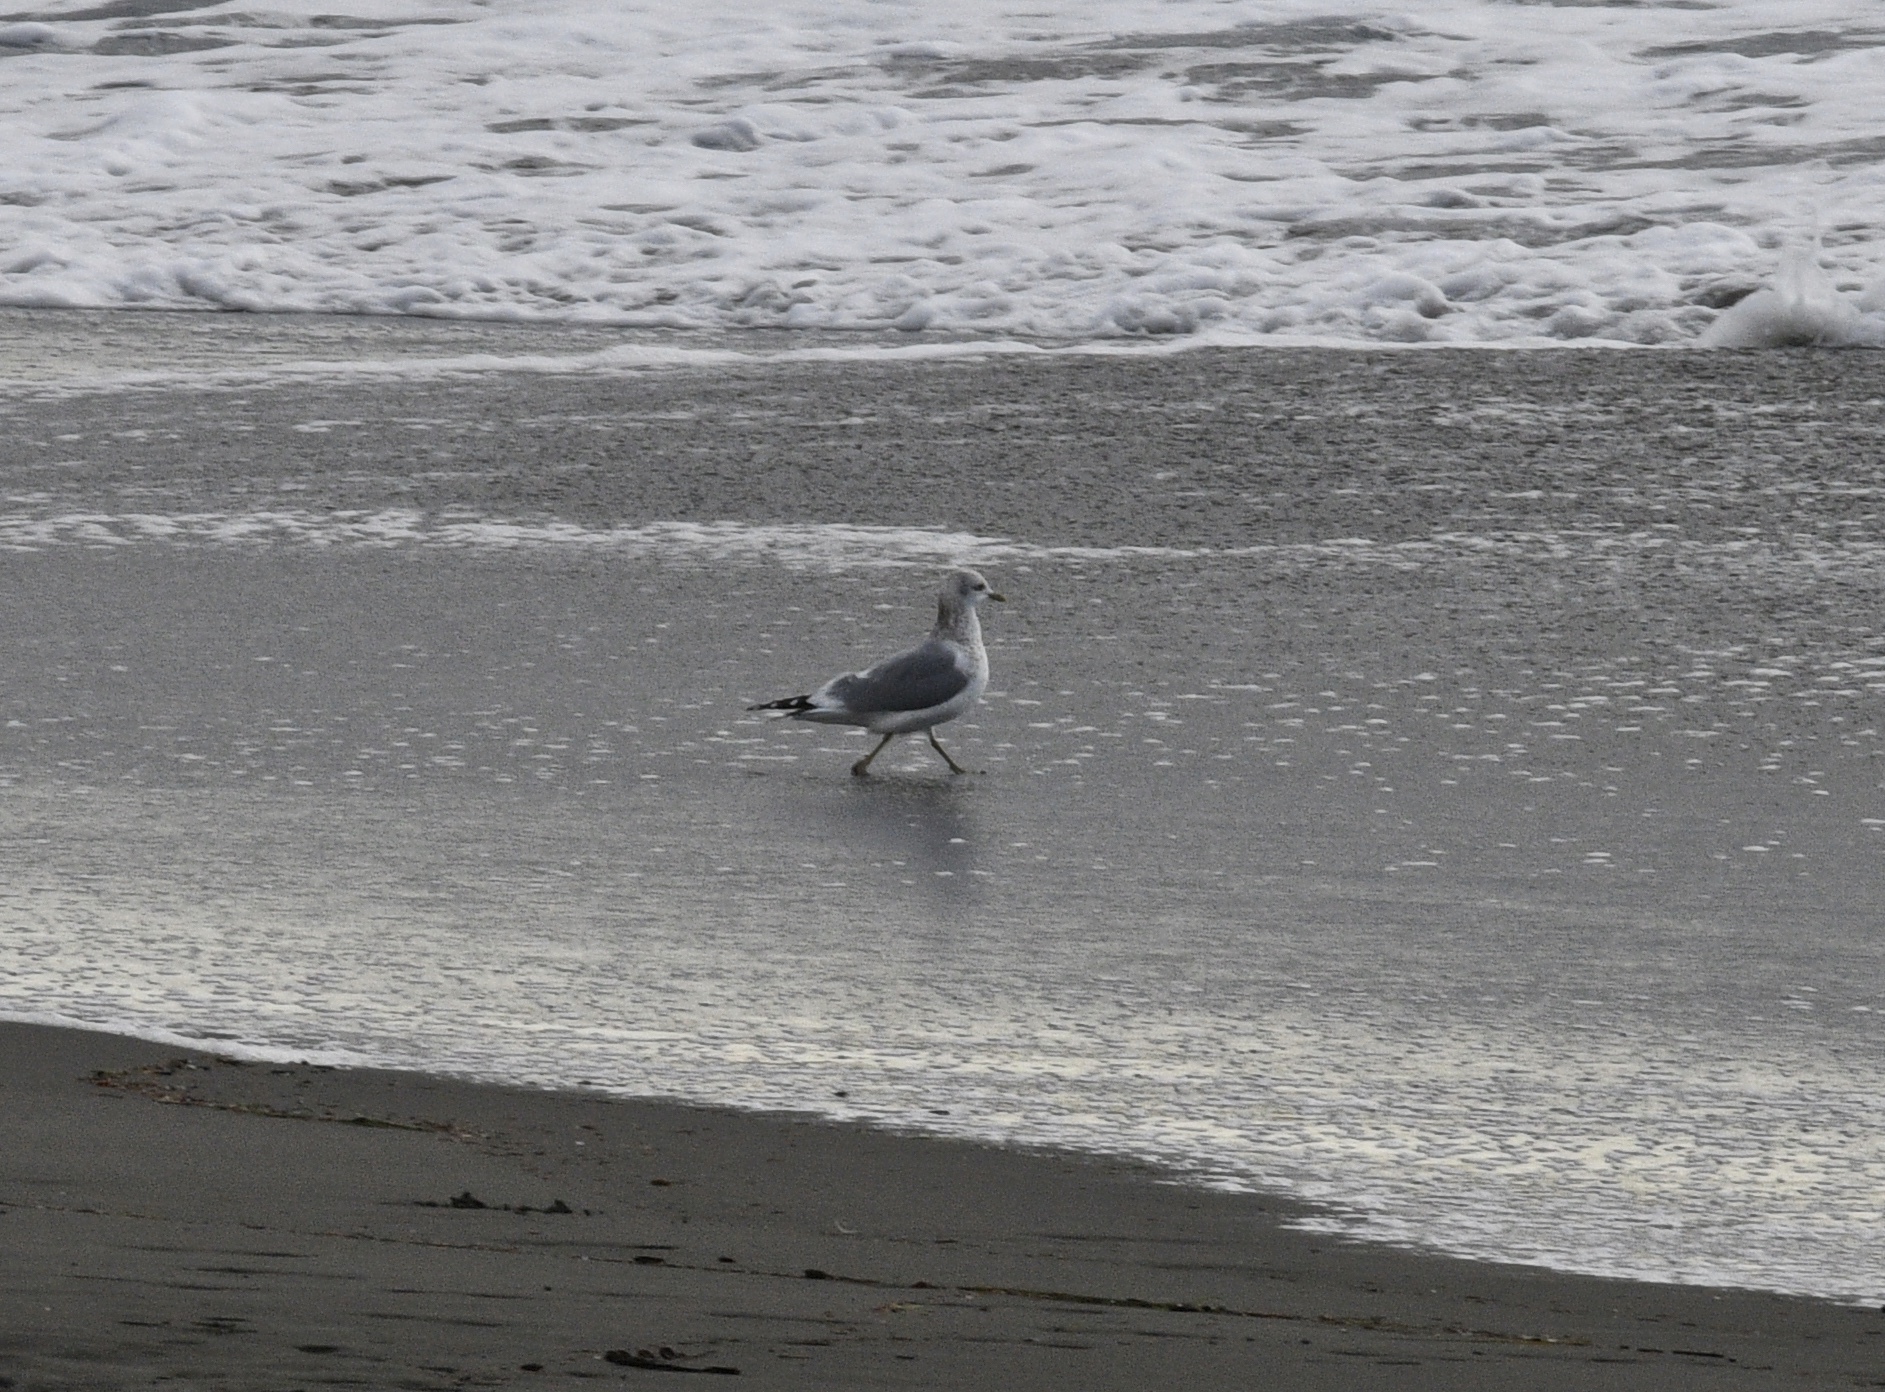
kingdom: Animalia
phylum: Chordata
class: Aves
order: Charadriiformes
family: Laridae
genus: Larus
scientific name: Larus brachyrhynchus
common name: Short-billed gull
